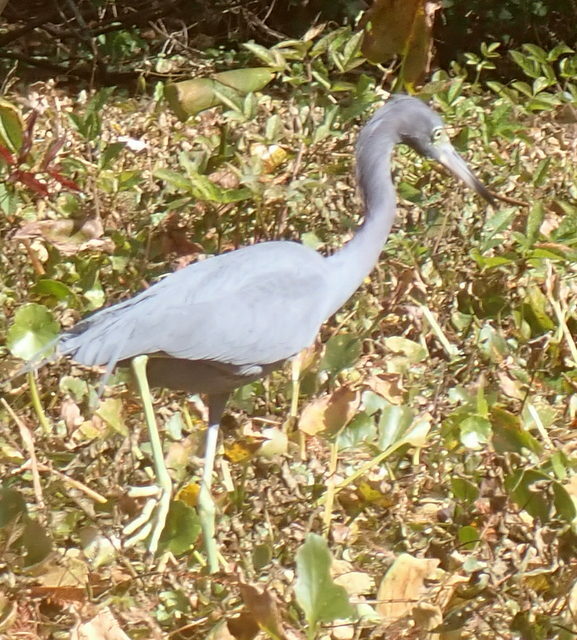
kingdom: Animalia
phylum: Chordata
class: Aves
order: Pelecaniformes
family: Ardeidae
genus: Egretta
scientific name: Egretta caerulea
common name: Little blue heron
